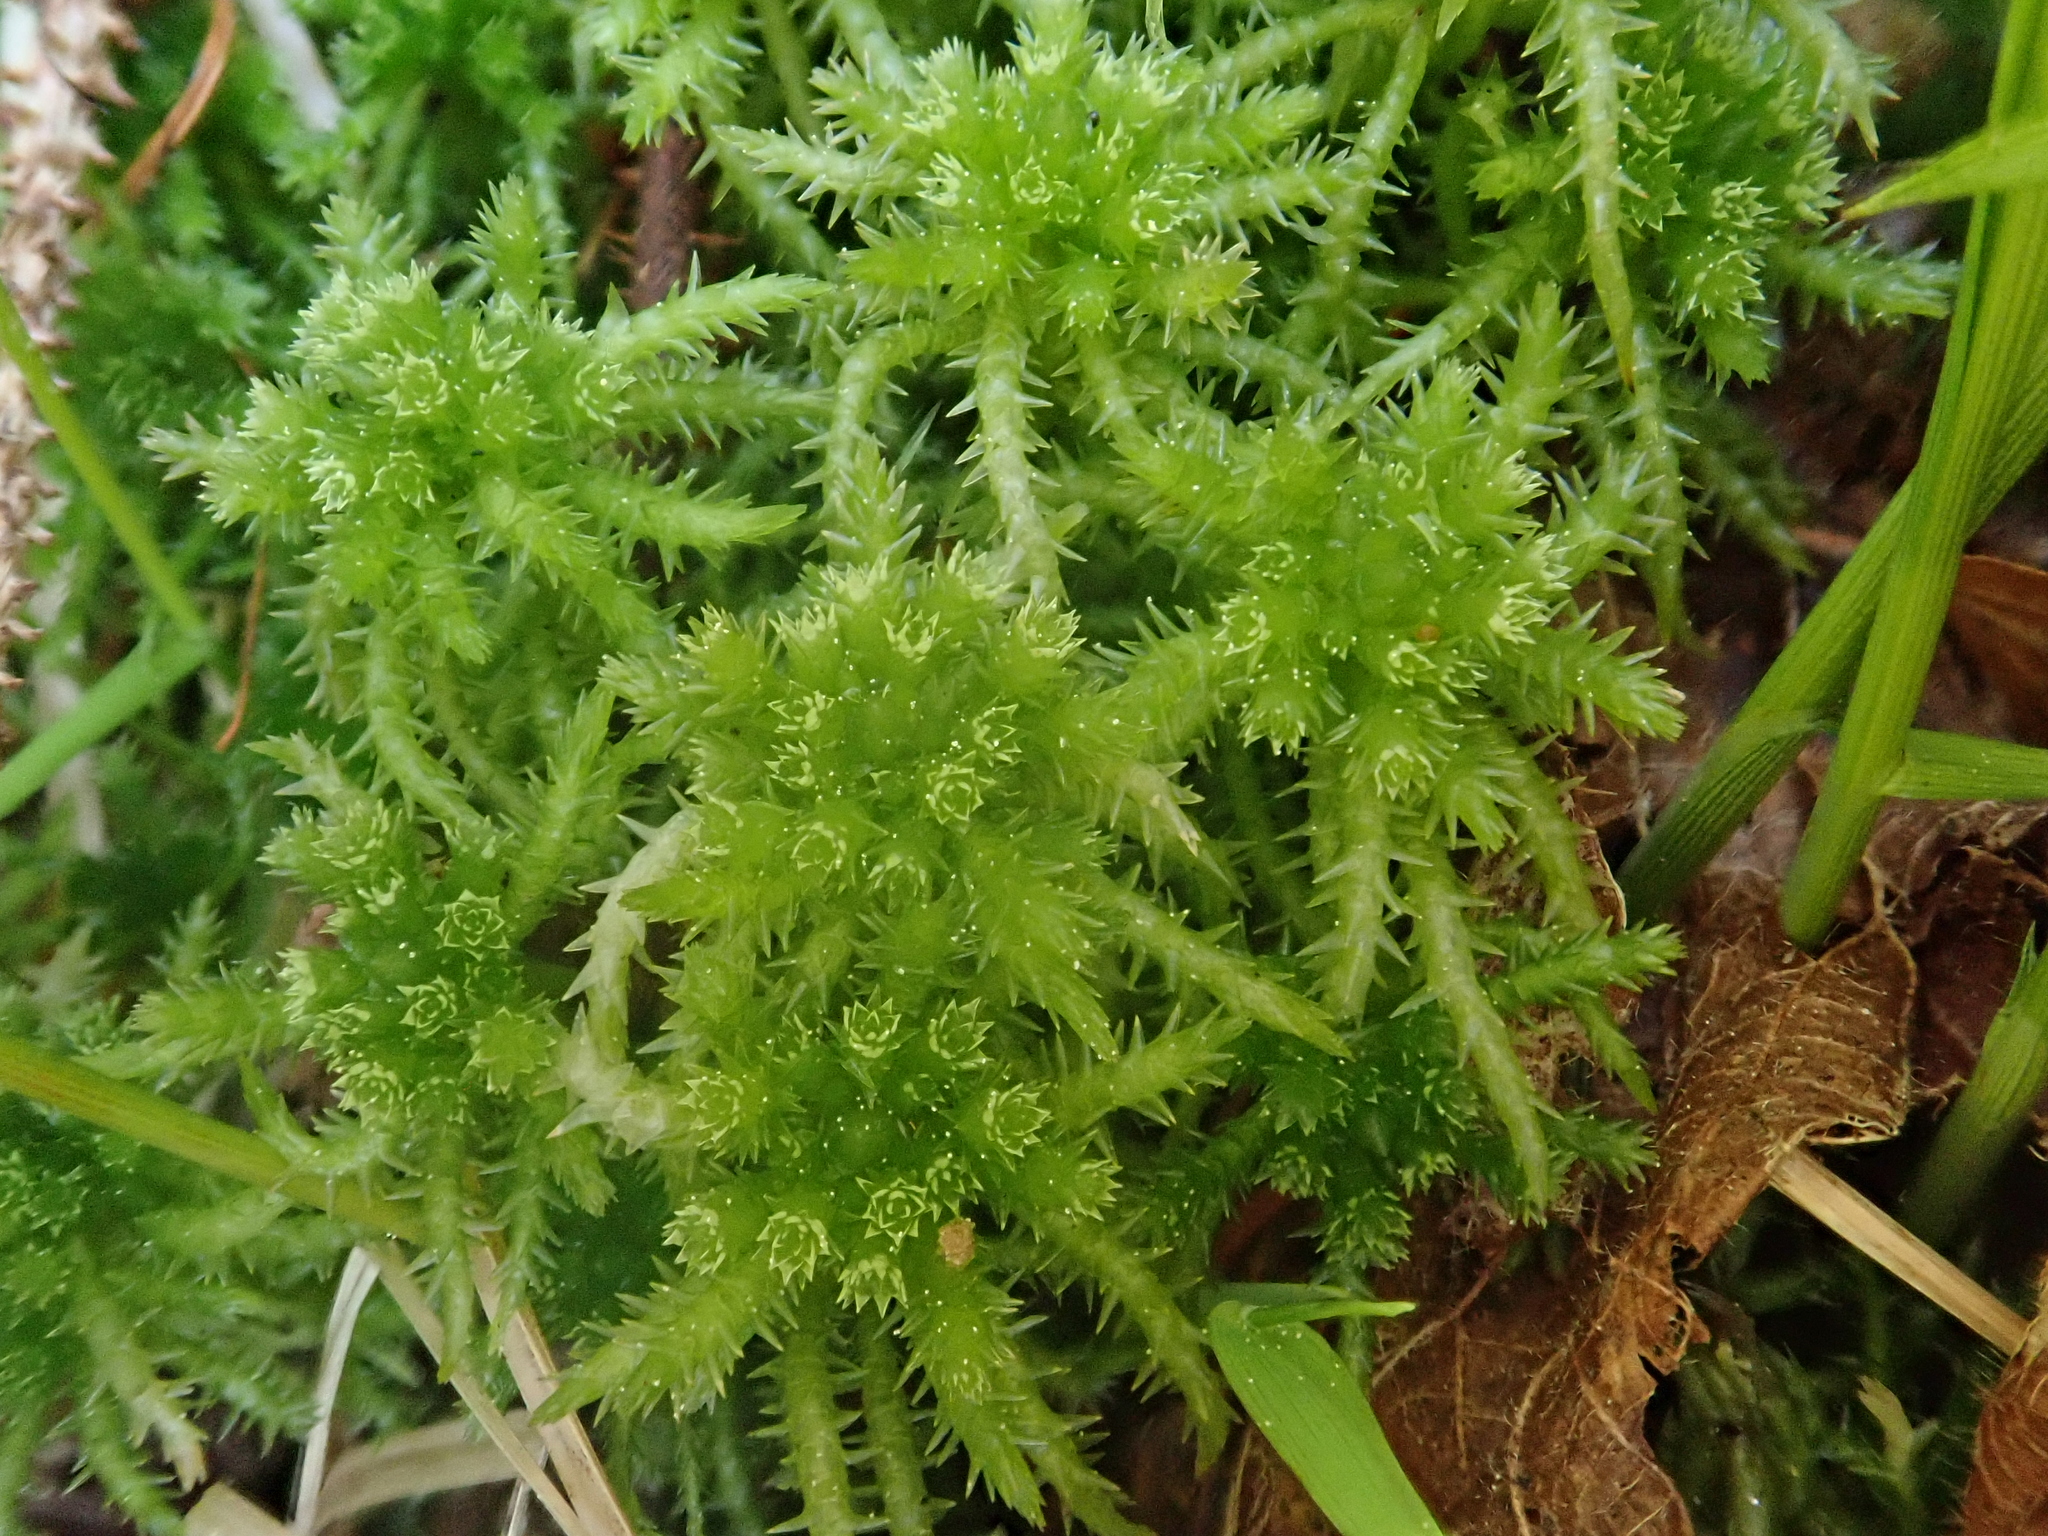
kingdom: Plantae
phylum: Bryophyta
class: Sphagnopsida
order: Sphagnales
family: Sphagnaceae
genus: Sphagnum
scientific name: Sphagnum squarrosum
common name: Shaggy peat moss
